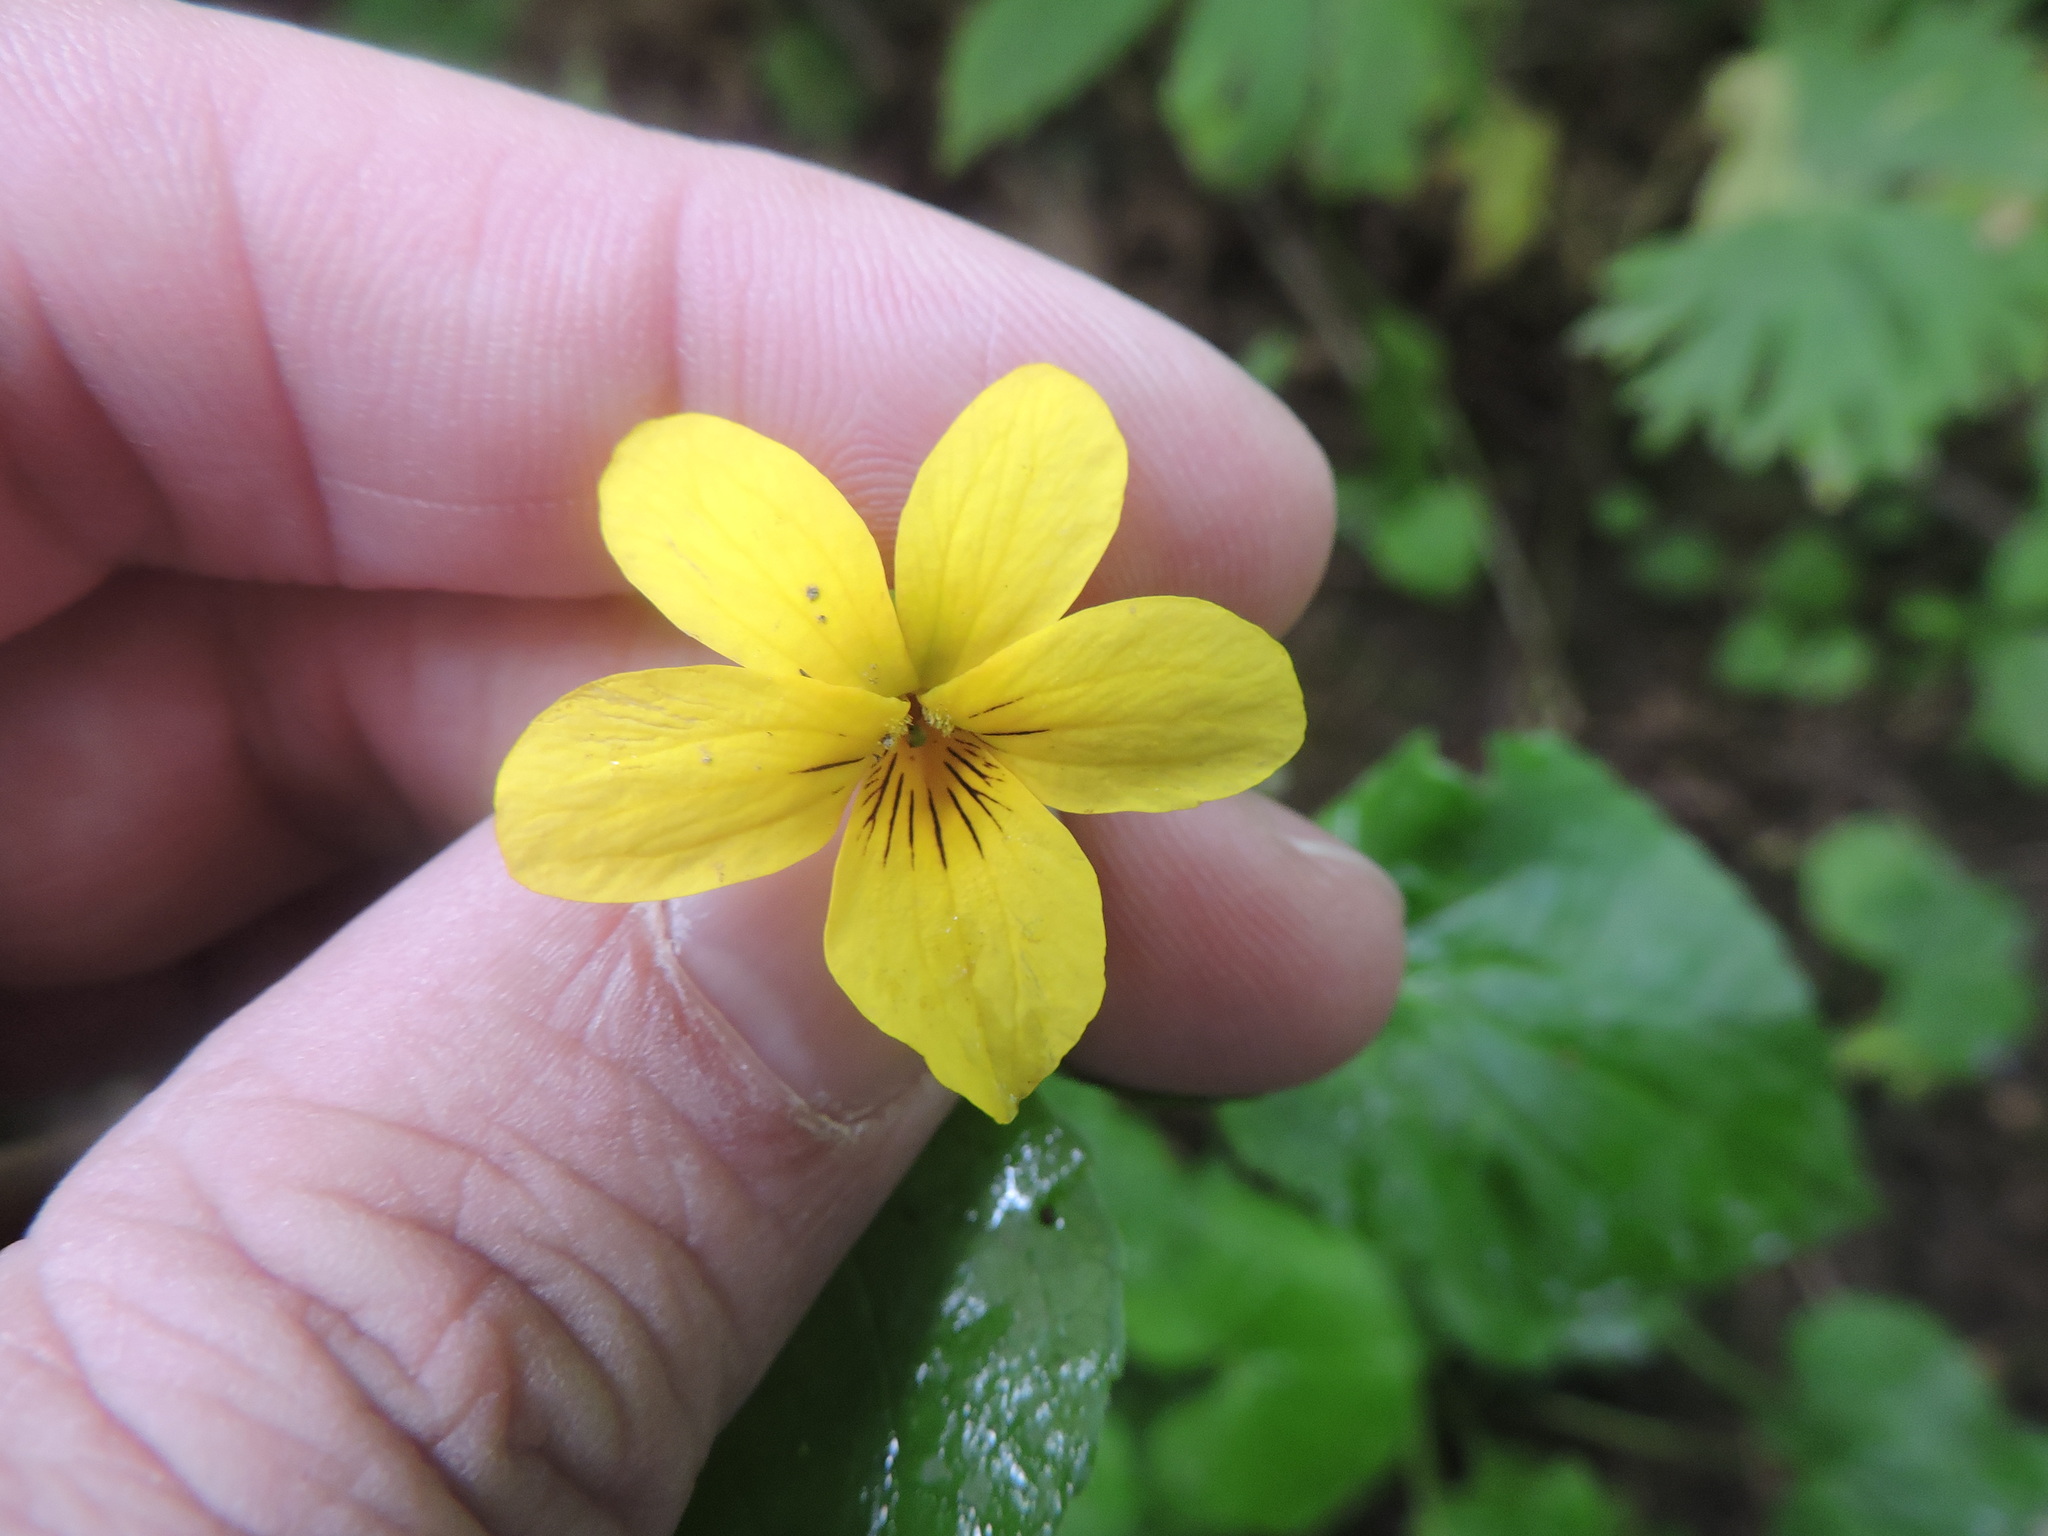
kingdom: Plantae
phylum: Tracheophyta
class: Magnoliopsida
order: Malpighiales
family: Violaceae
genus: Viola
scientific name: Viola glabella
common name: Stream violet
